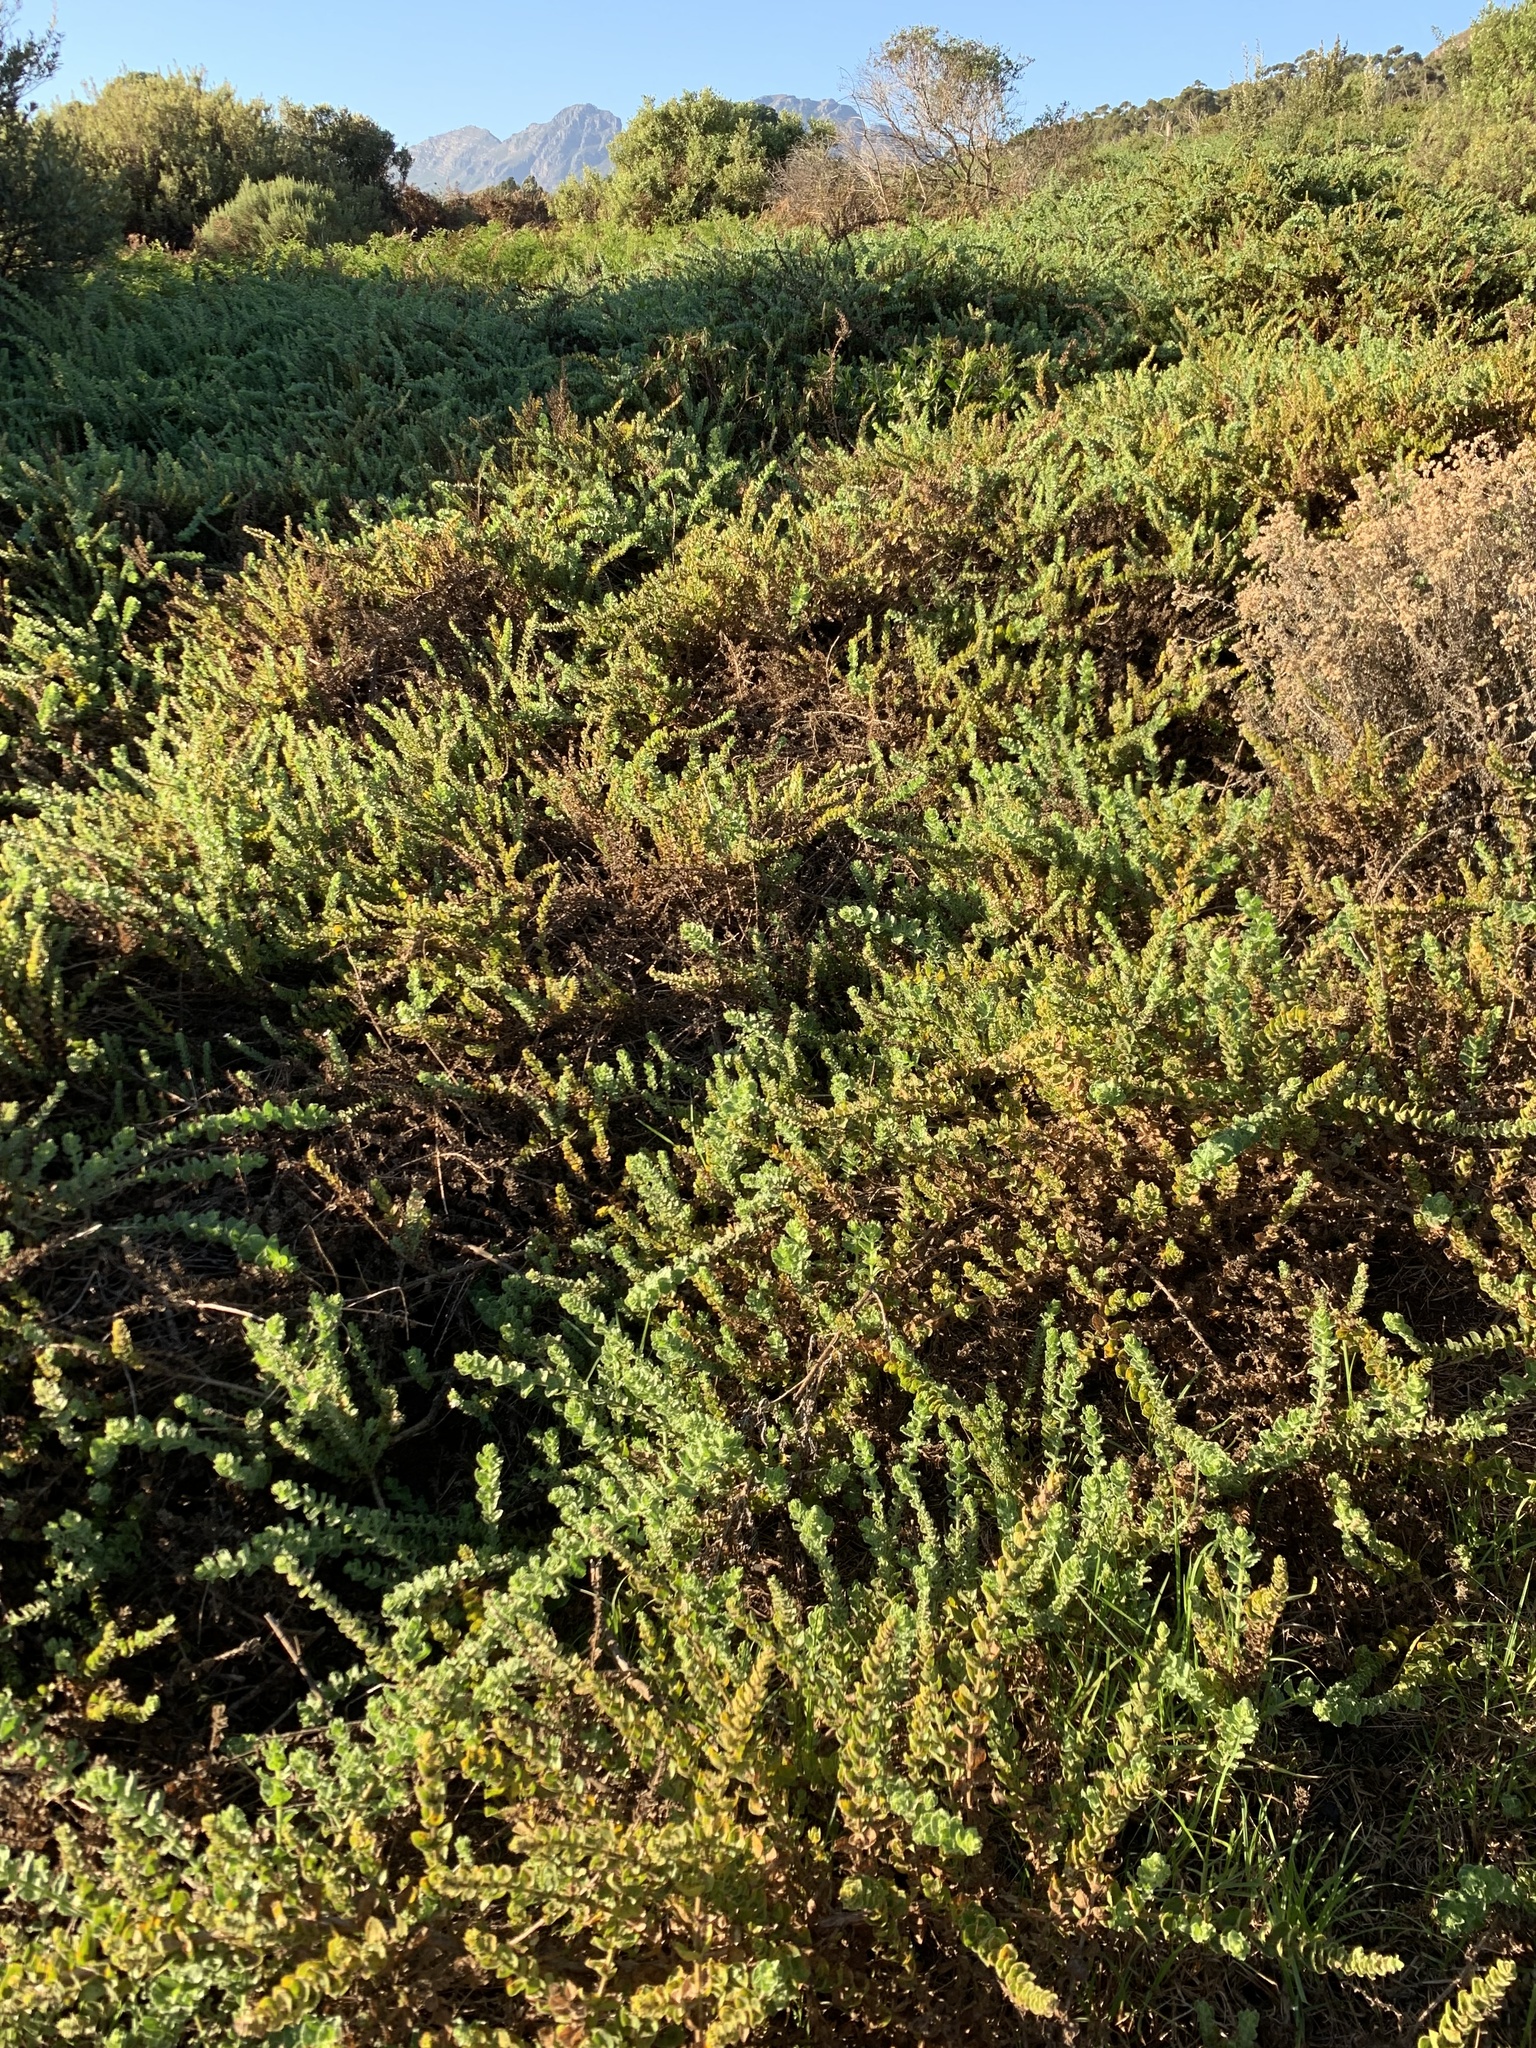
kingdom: Plantae
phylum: Tracheophyta
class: Magnoliopsida
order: Lamiales
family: Scrophulariaceae
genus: Oftia
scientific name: Oftia africana
